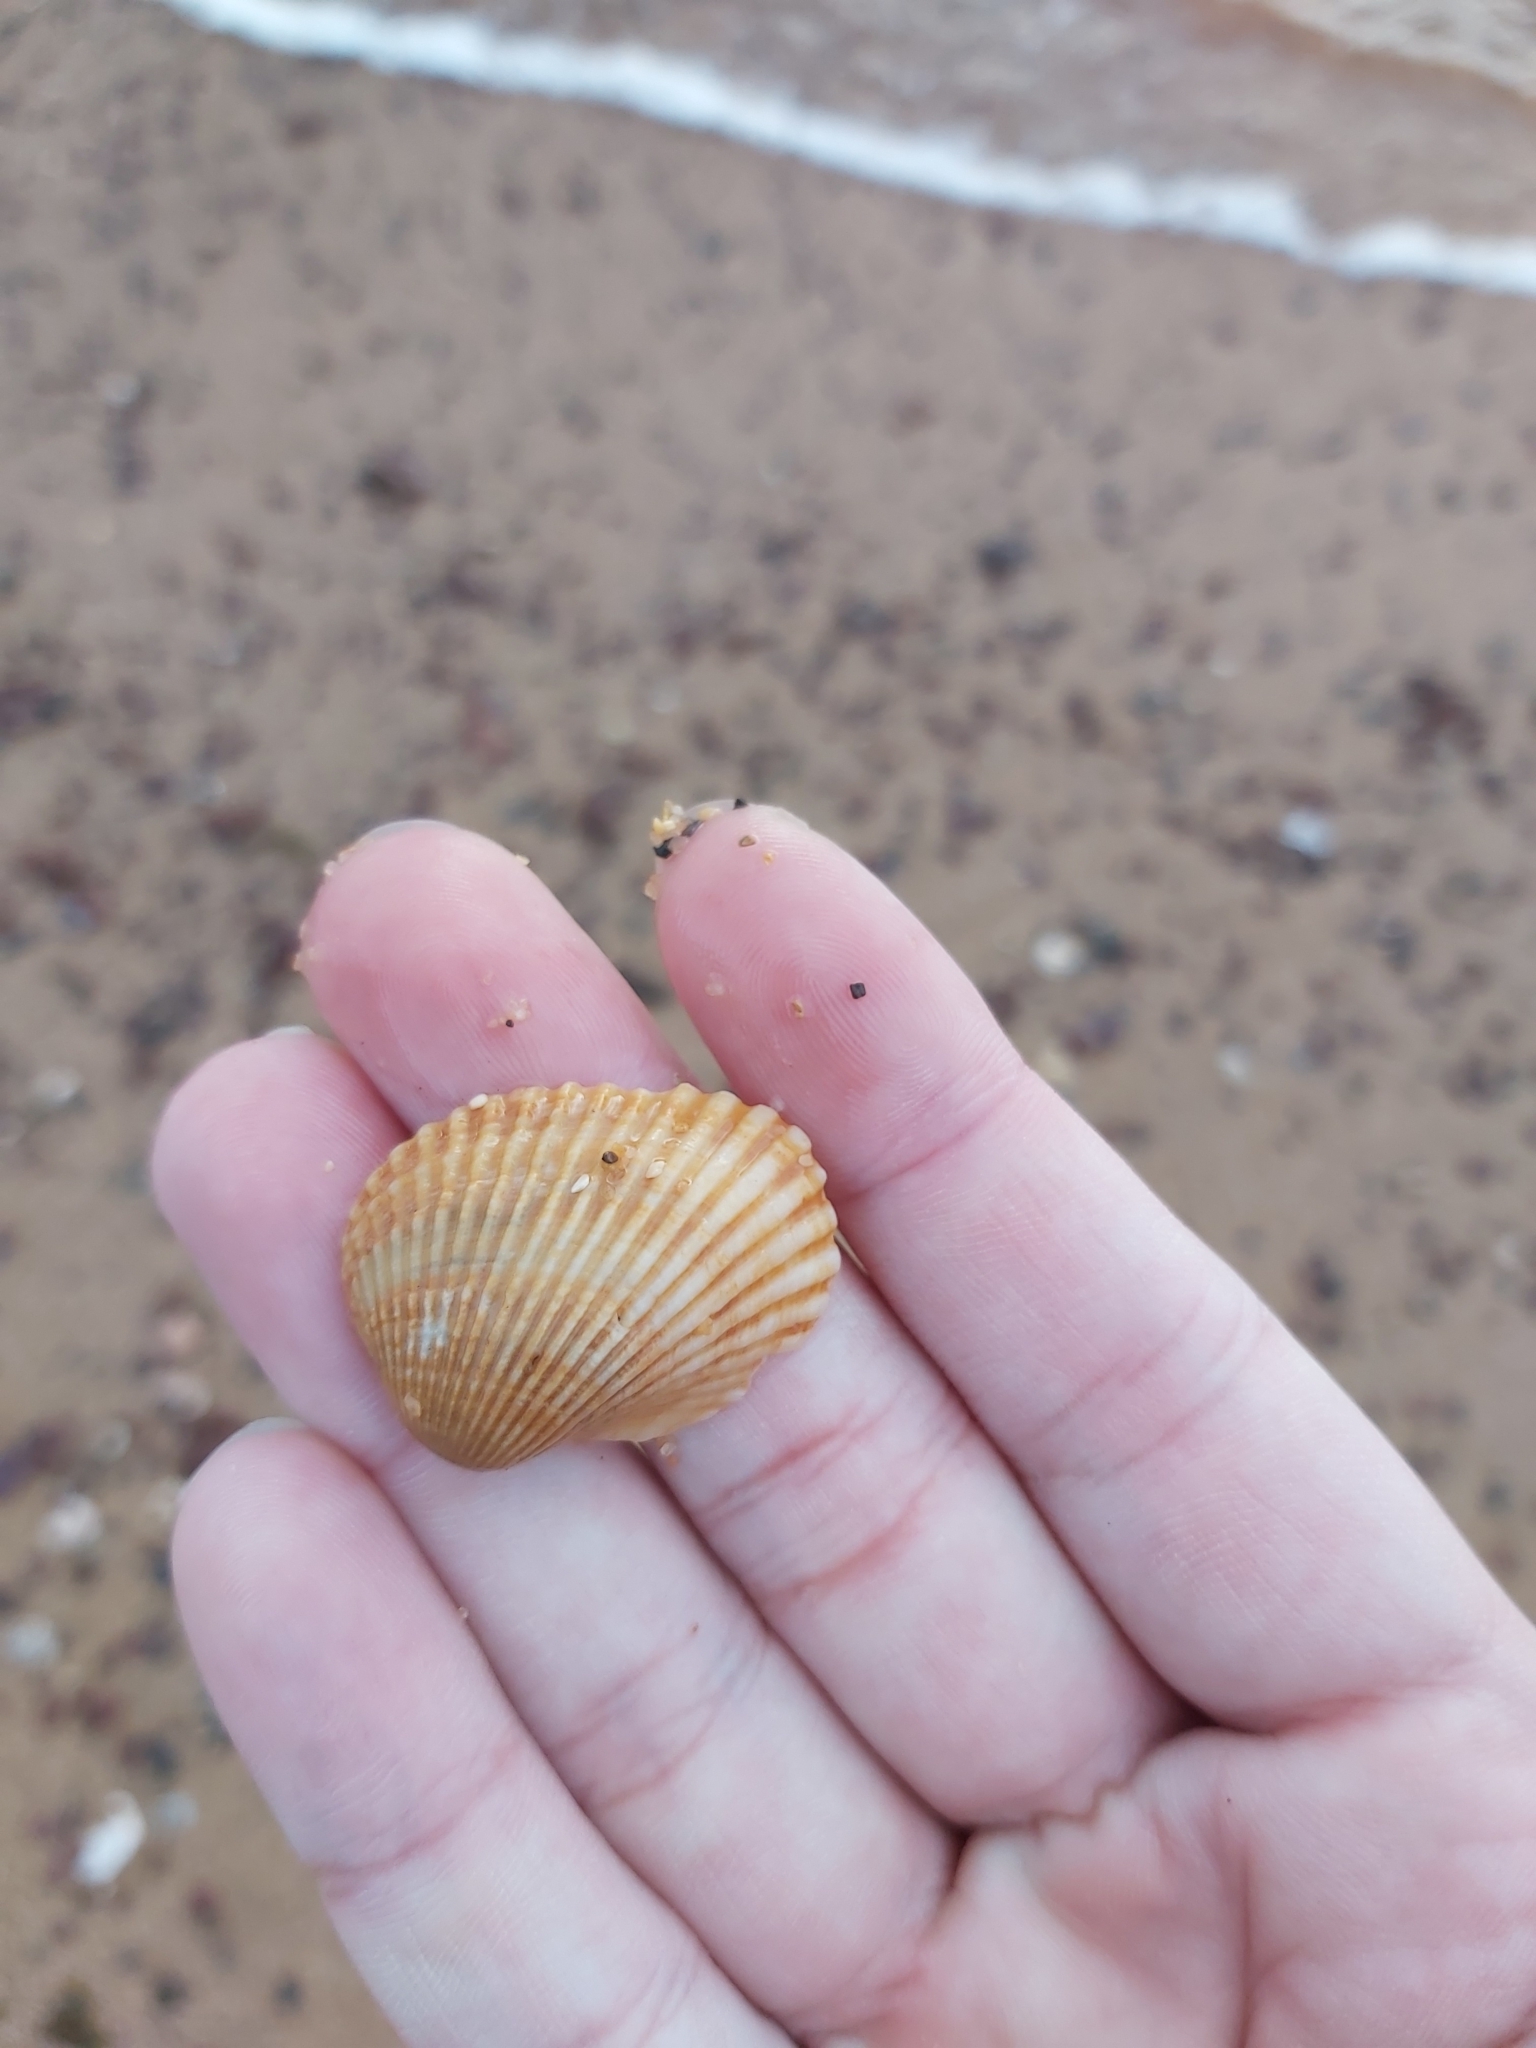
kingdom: Animalia
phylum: Mollusca
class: Bivalvia
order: Arcida
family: Arcidae
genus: Anadara
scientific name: Anadara trapezia
